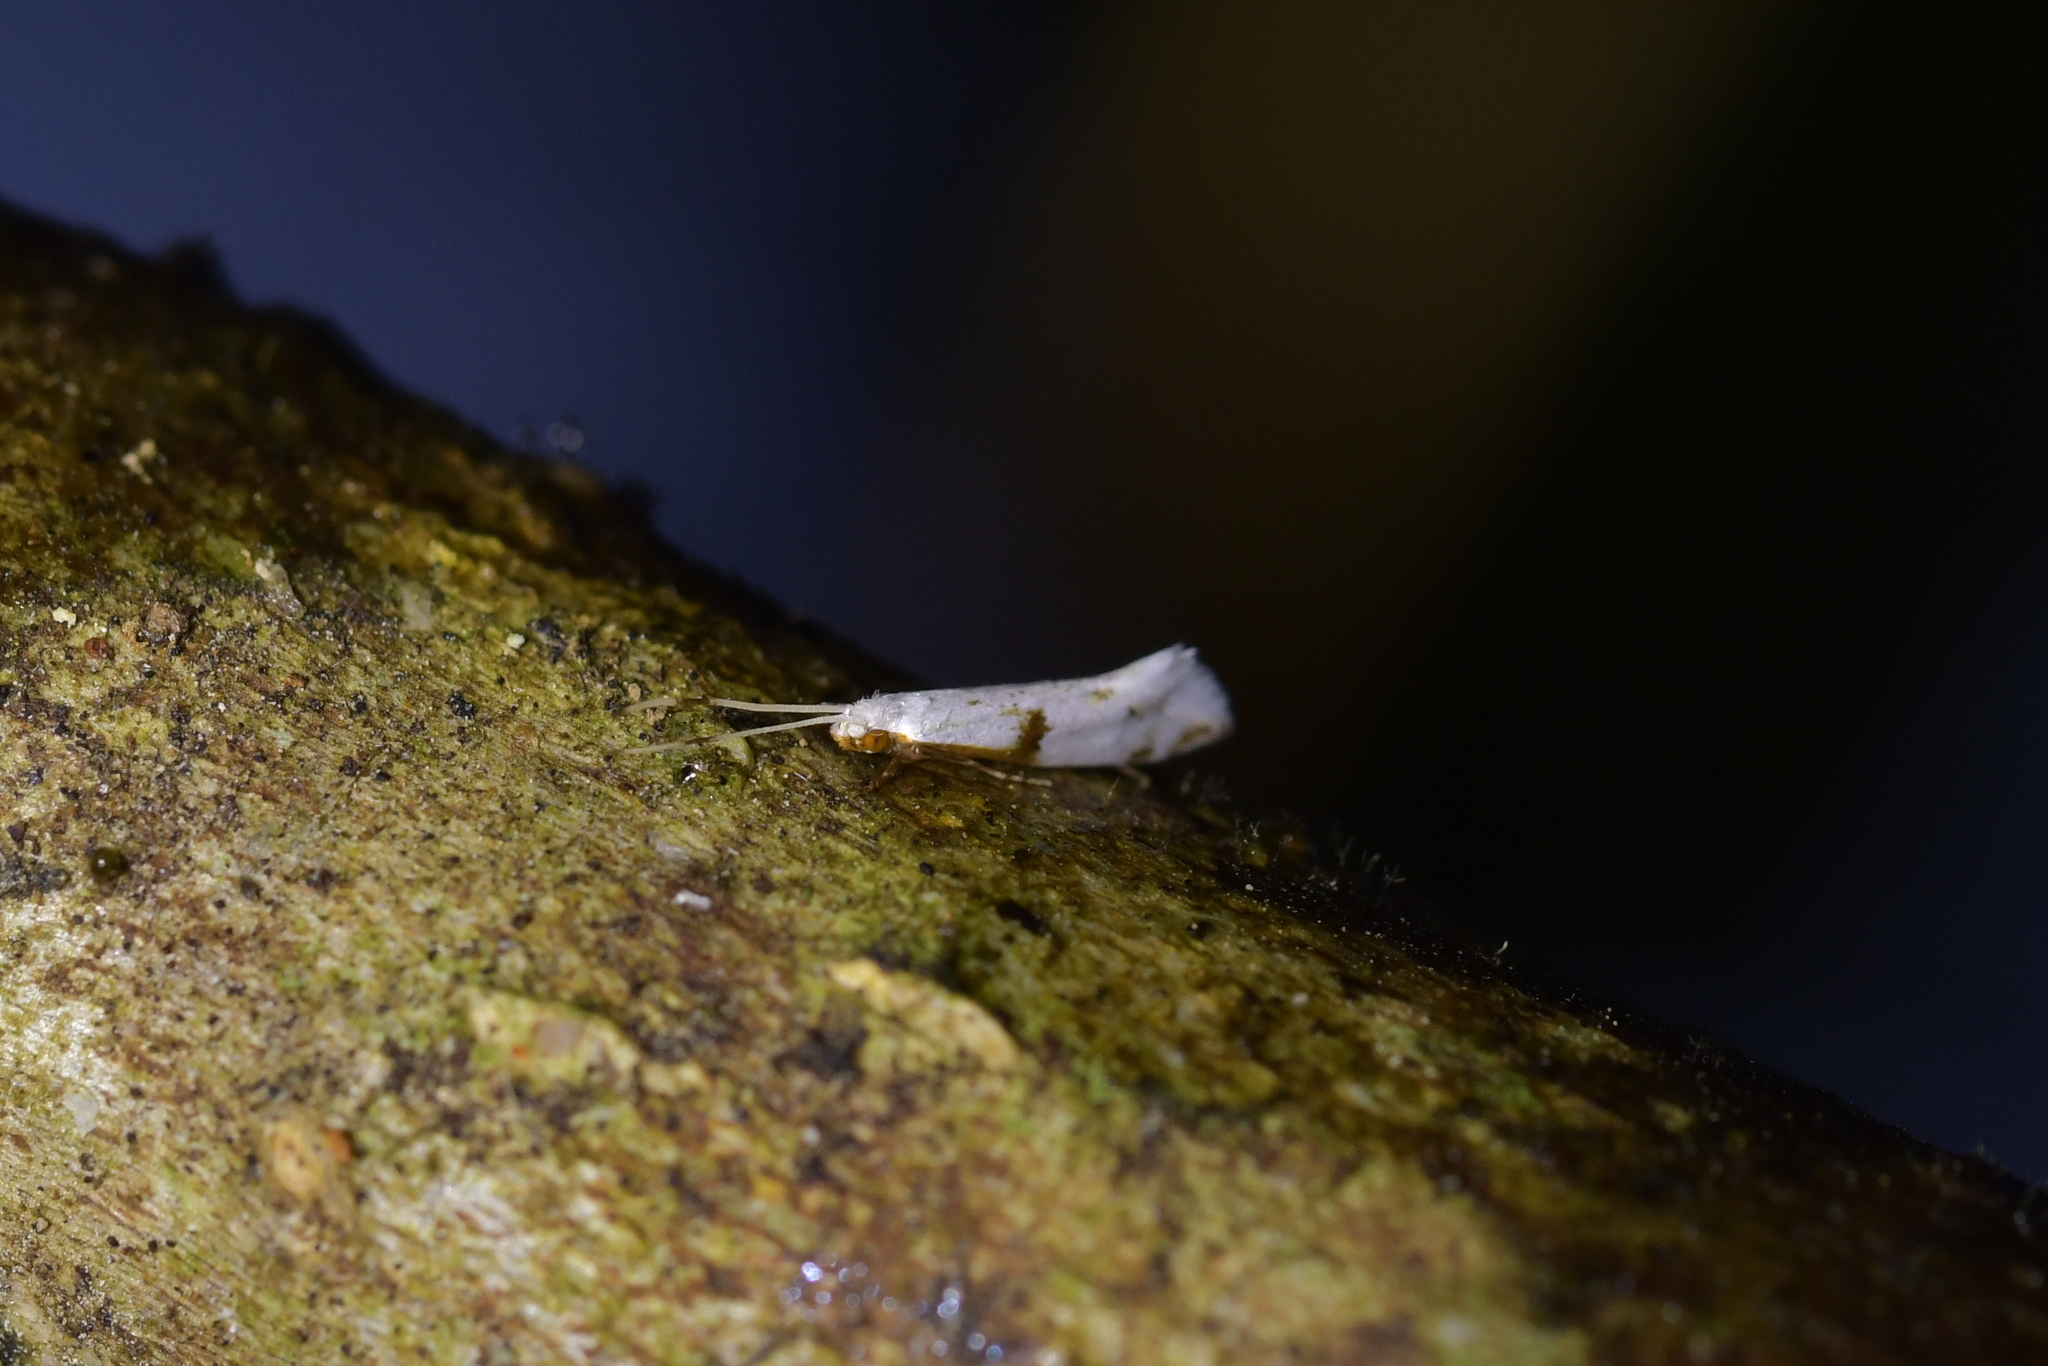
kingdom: Animalia
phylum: Arthropoda
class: Insecta
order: Lepidoptera
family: Tineidae
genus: Sagephora
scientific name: Sagephora felix
